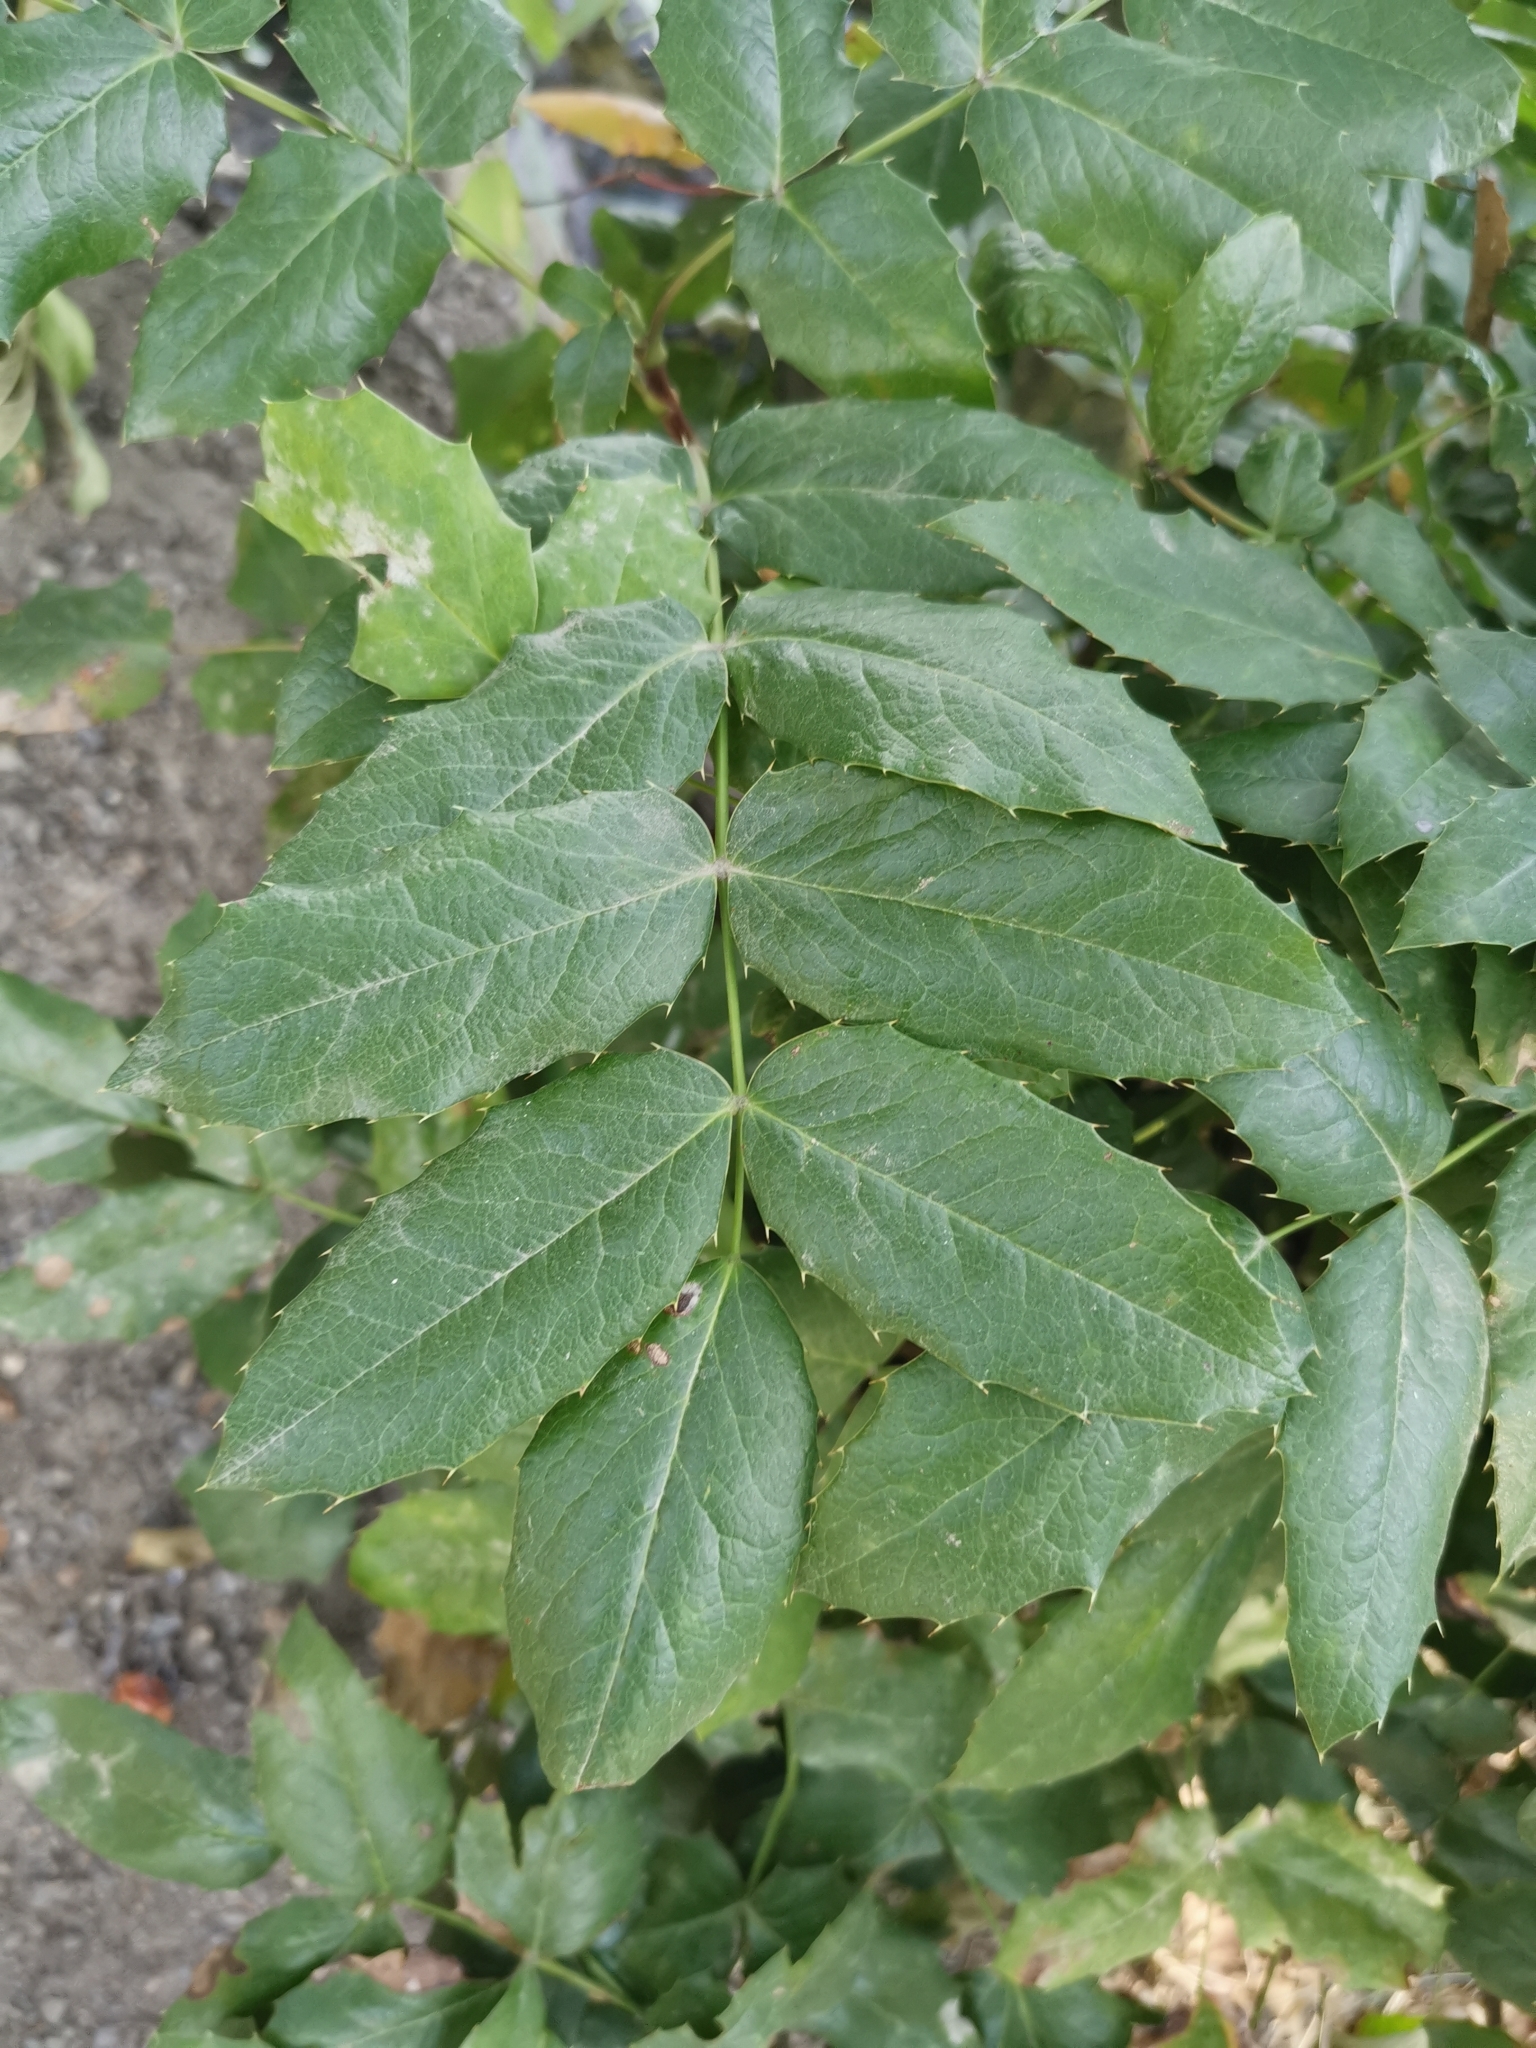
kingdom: Plantae
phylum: Tracheophyta
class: Magnoliopsida
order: Ranunculales
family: Berberidaceae
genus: Mahonia
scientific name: Mahonia aquifolium
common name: Oregon-grape
